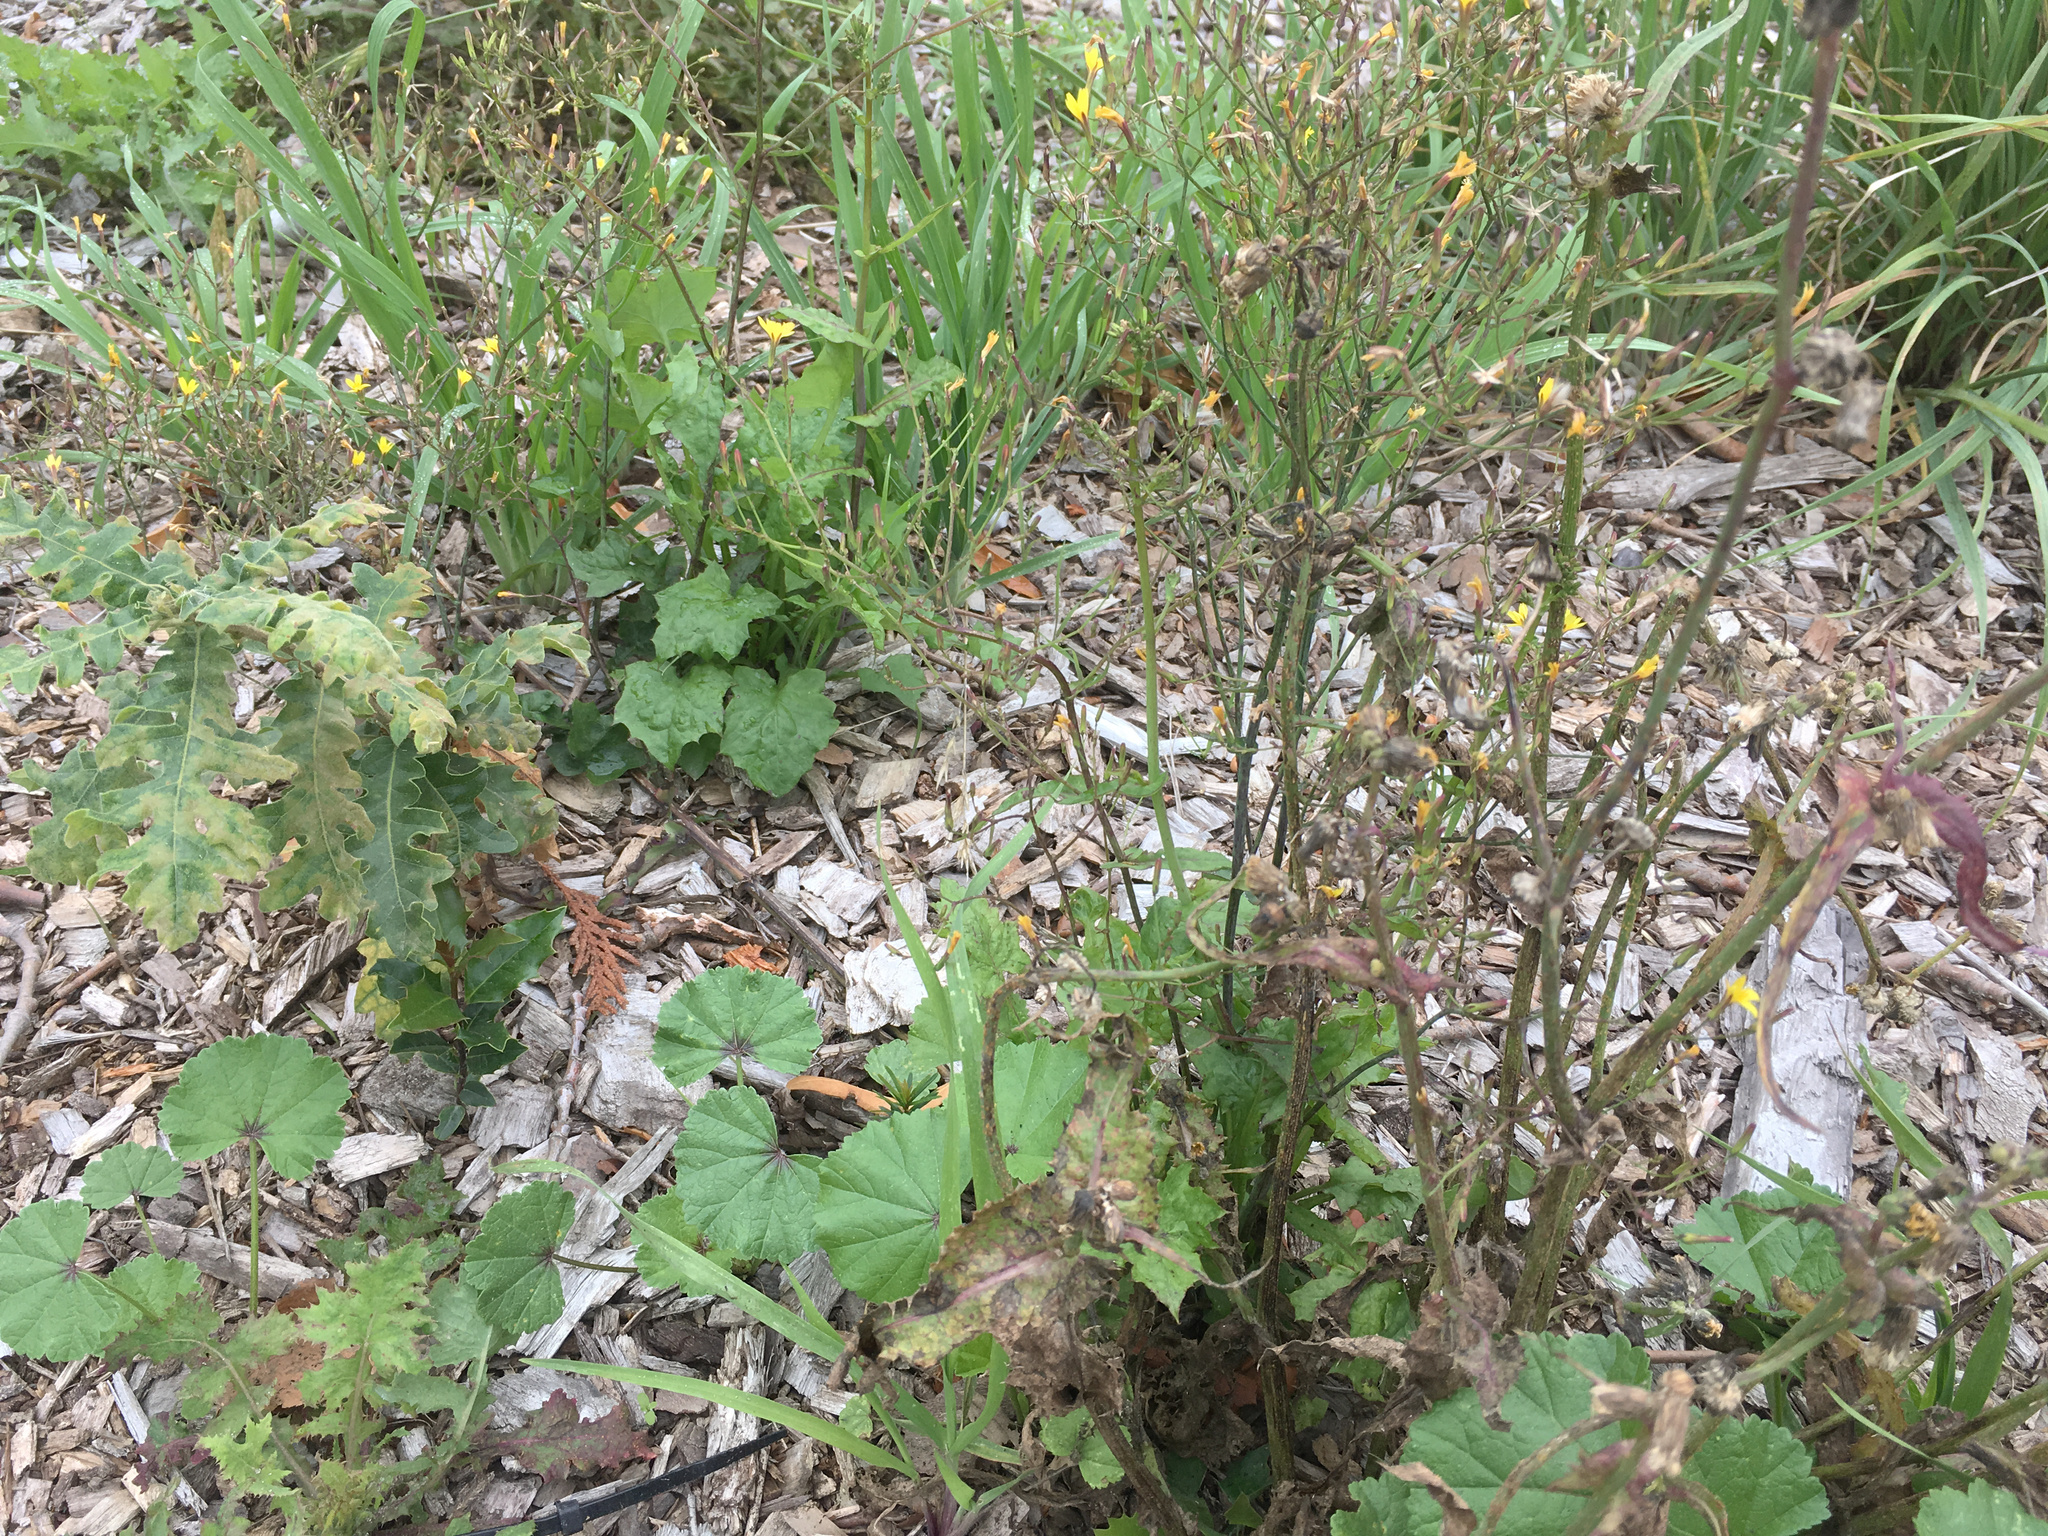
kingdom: Plantae
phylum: Tracheophyta
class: Magnoliopsida
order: Asterales
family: Asteraceae
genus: Mycelis
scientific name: Mycelis muralis
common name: Wall lettuce
